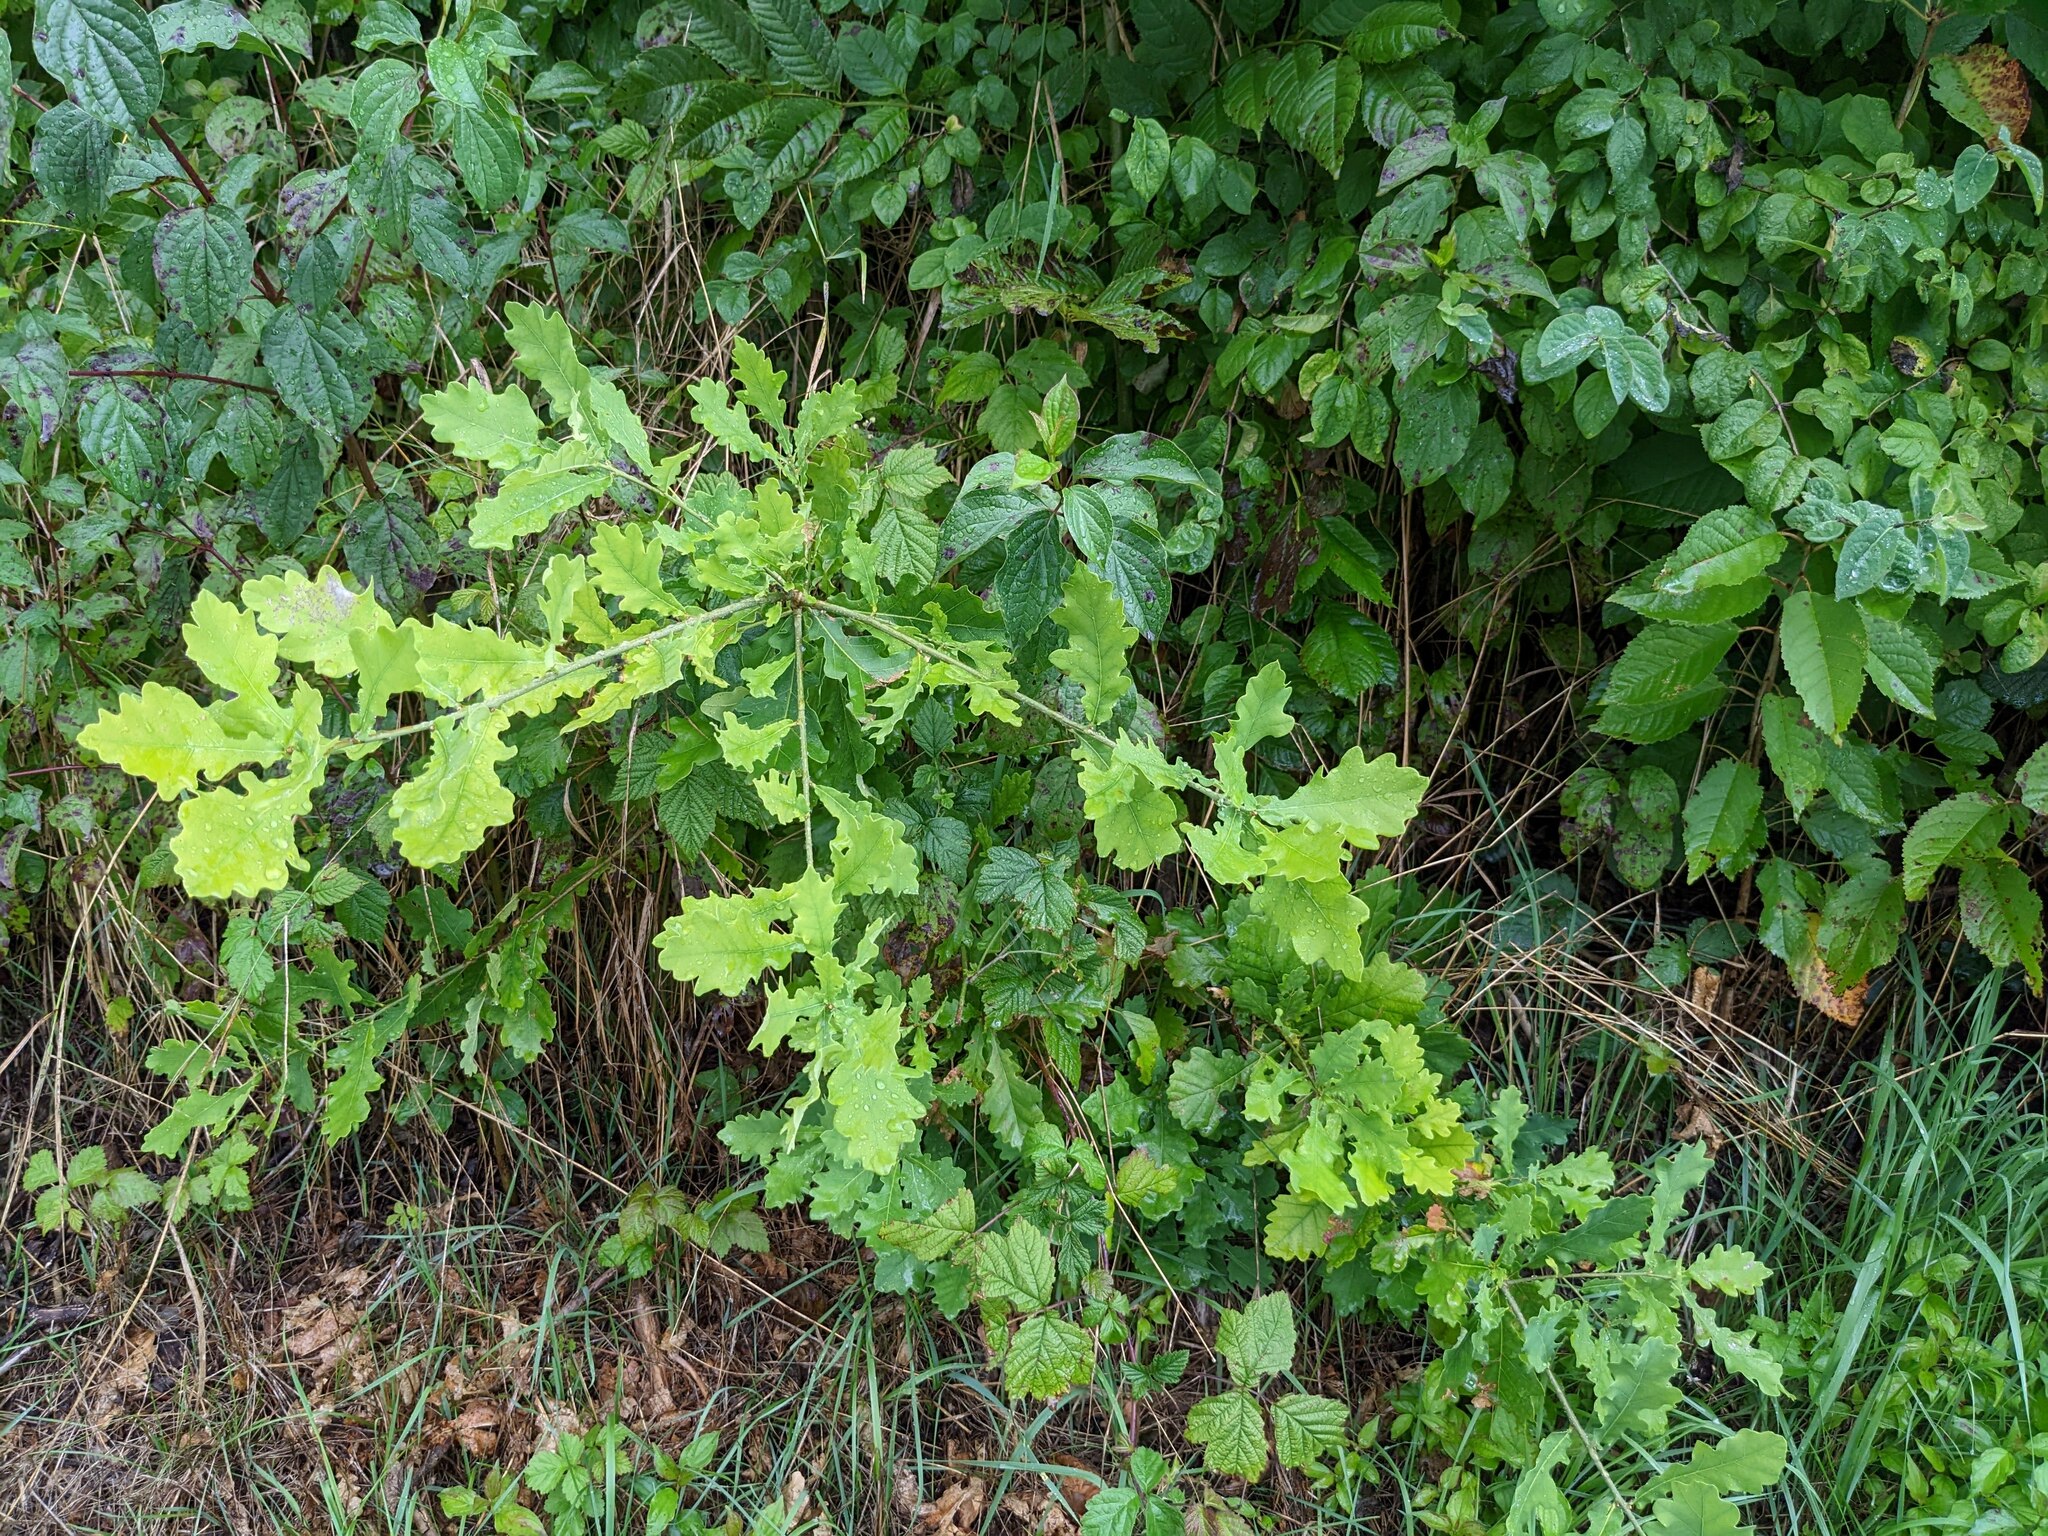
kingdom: Plantae
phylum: Tracheophyta
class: Magnoliopsida
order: Fagales
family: Fagaceae
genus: Quercus
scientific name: Quercus robur
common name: Pedunculate oak
